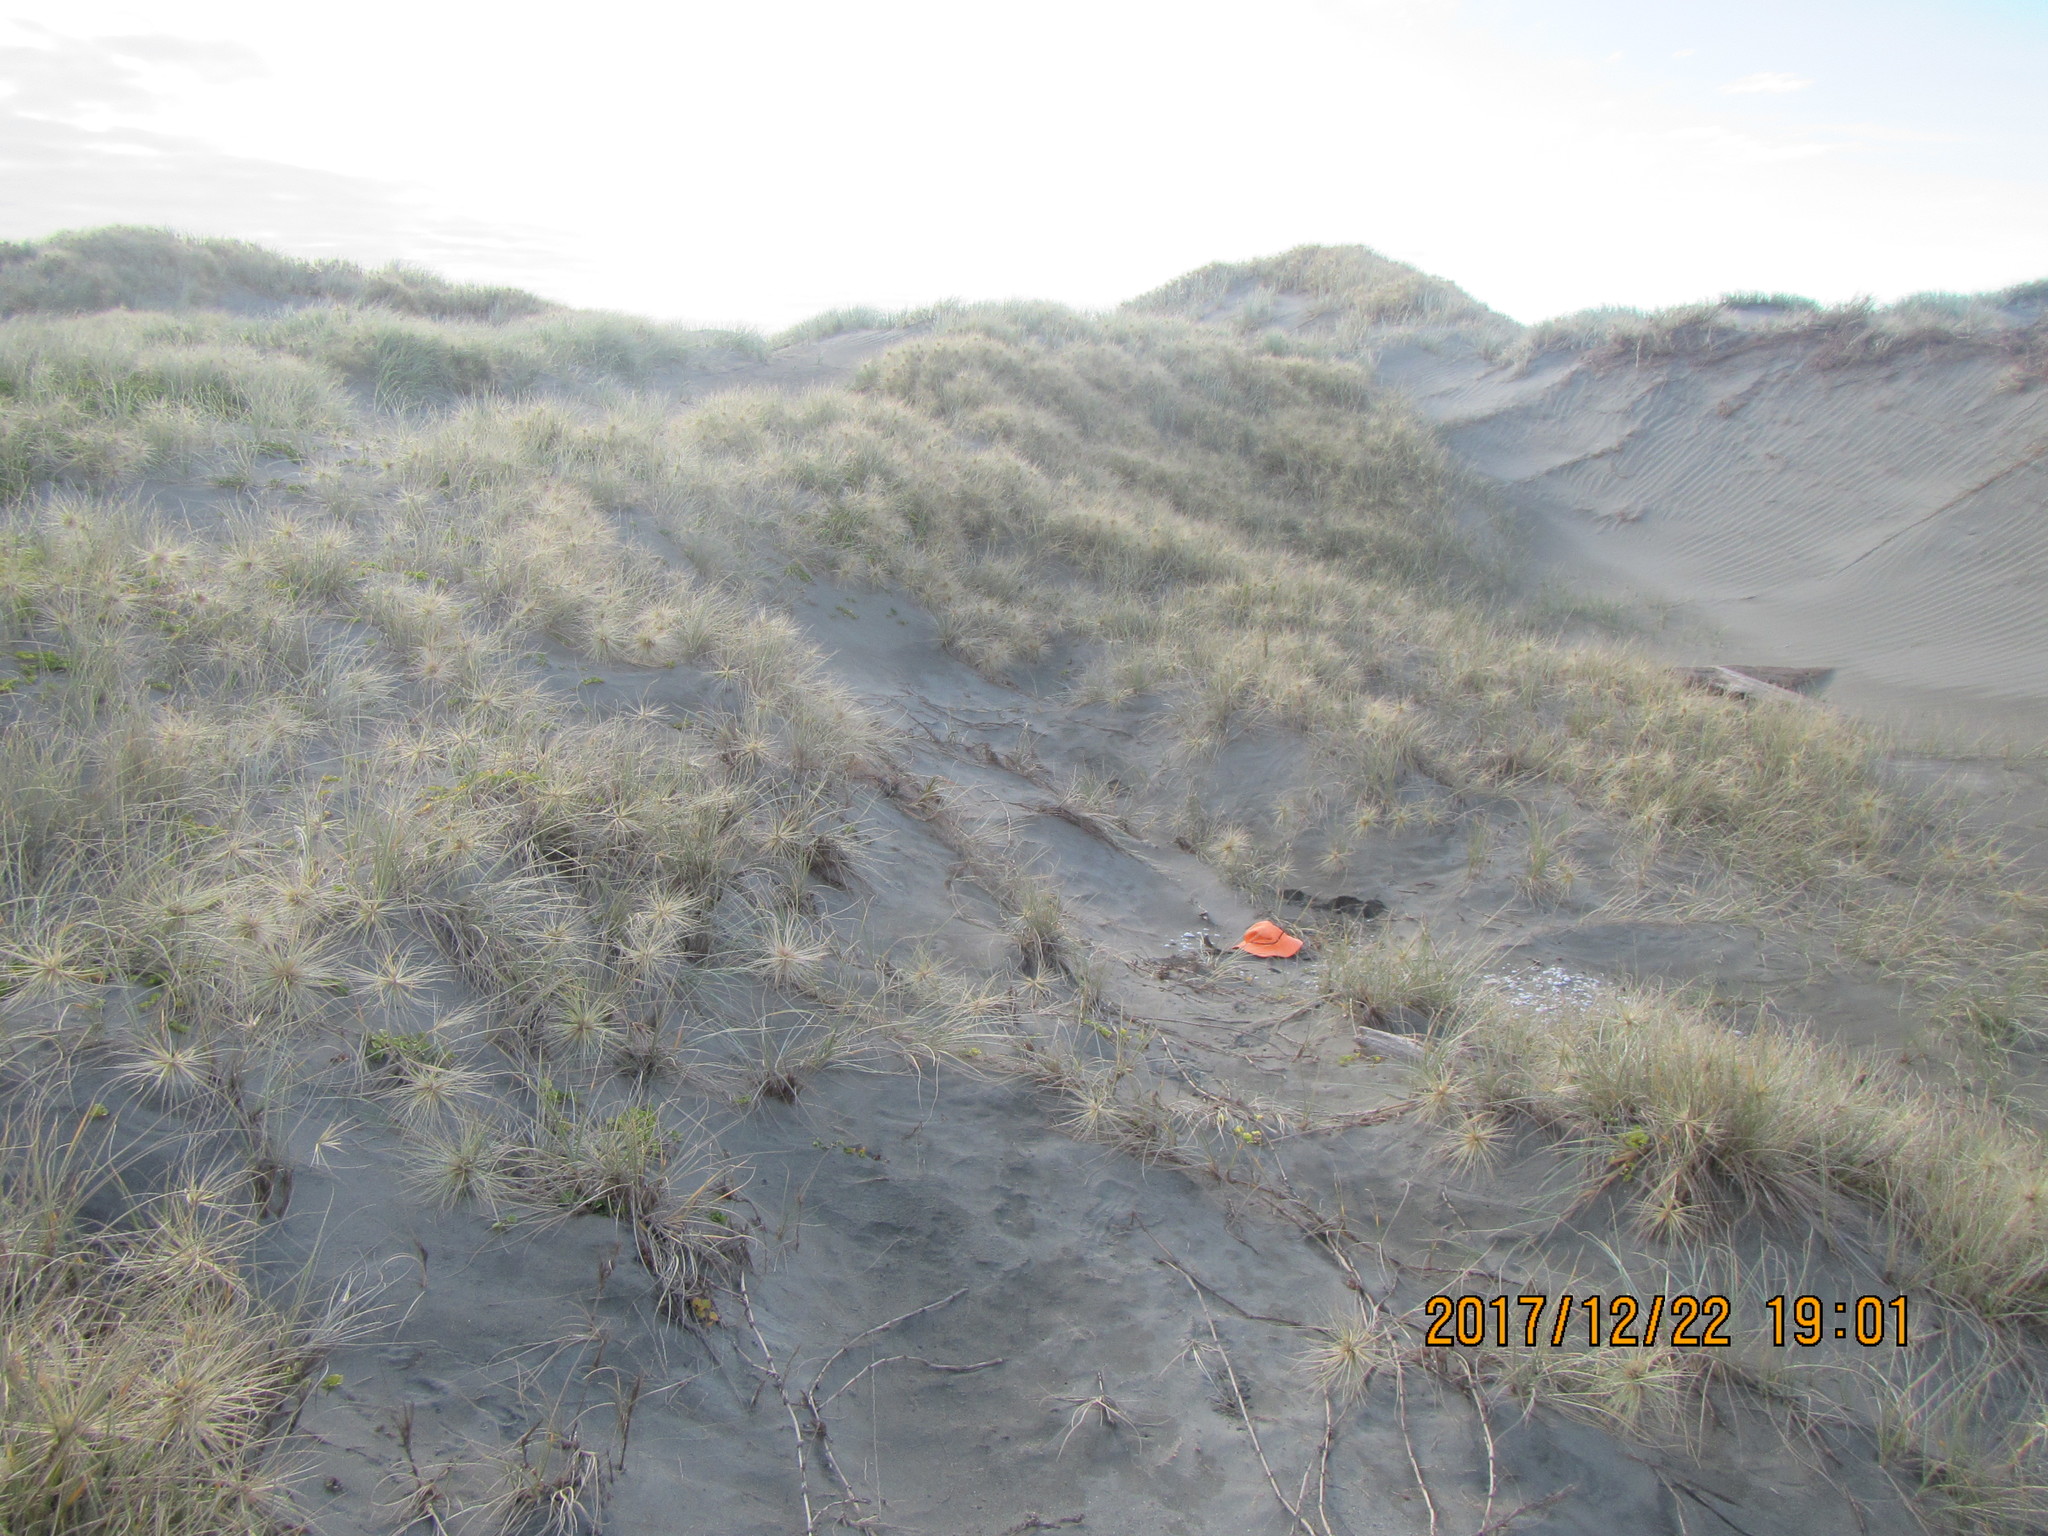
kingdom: Animalia
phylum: Arthropoda
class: Arachnida
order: Araneae
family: Theridiidae
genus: Steatoda
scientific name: Steatoda lepida
